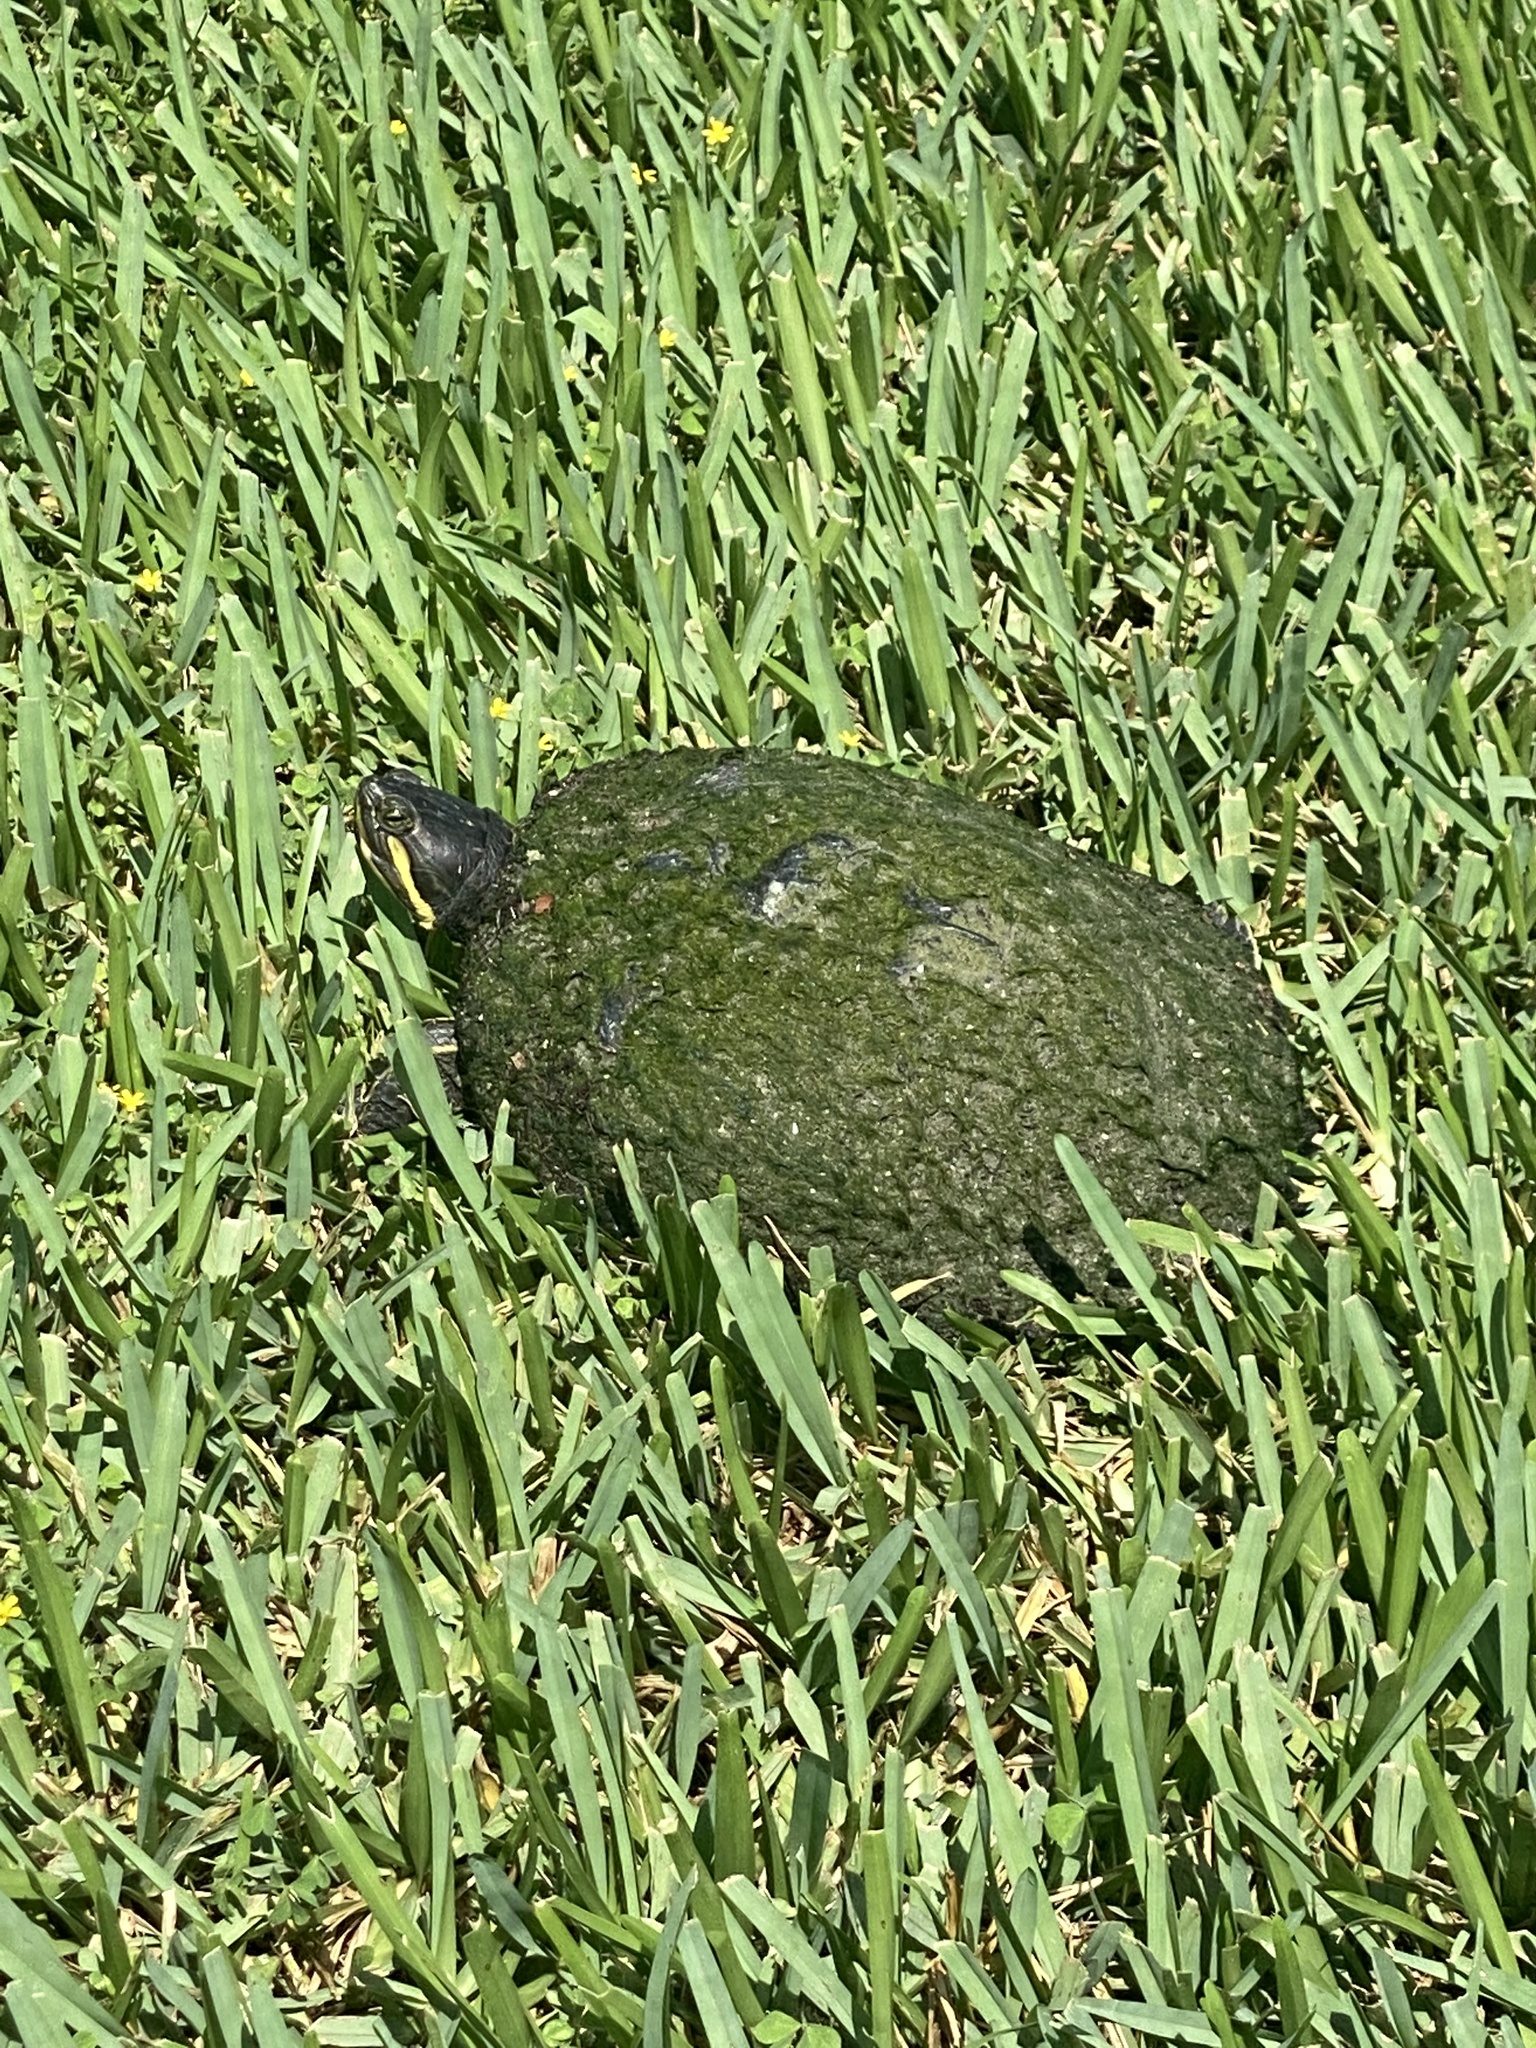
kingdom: Animalia
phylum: Chordata
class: Testudines
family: Emydidae
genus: Deirochelys
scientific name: Deirochelys reticularia
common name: Chicken turtle
